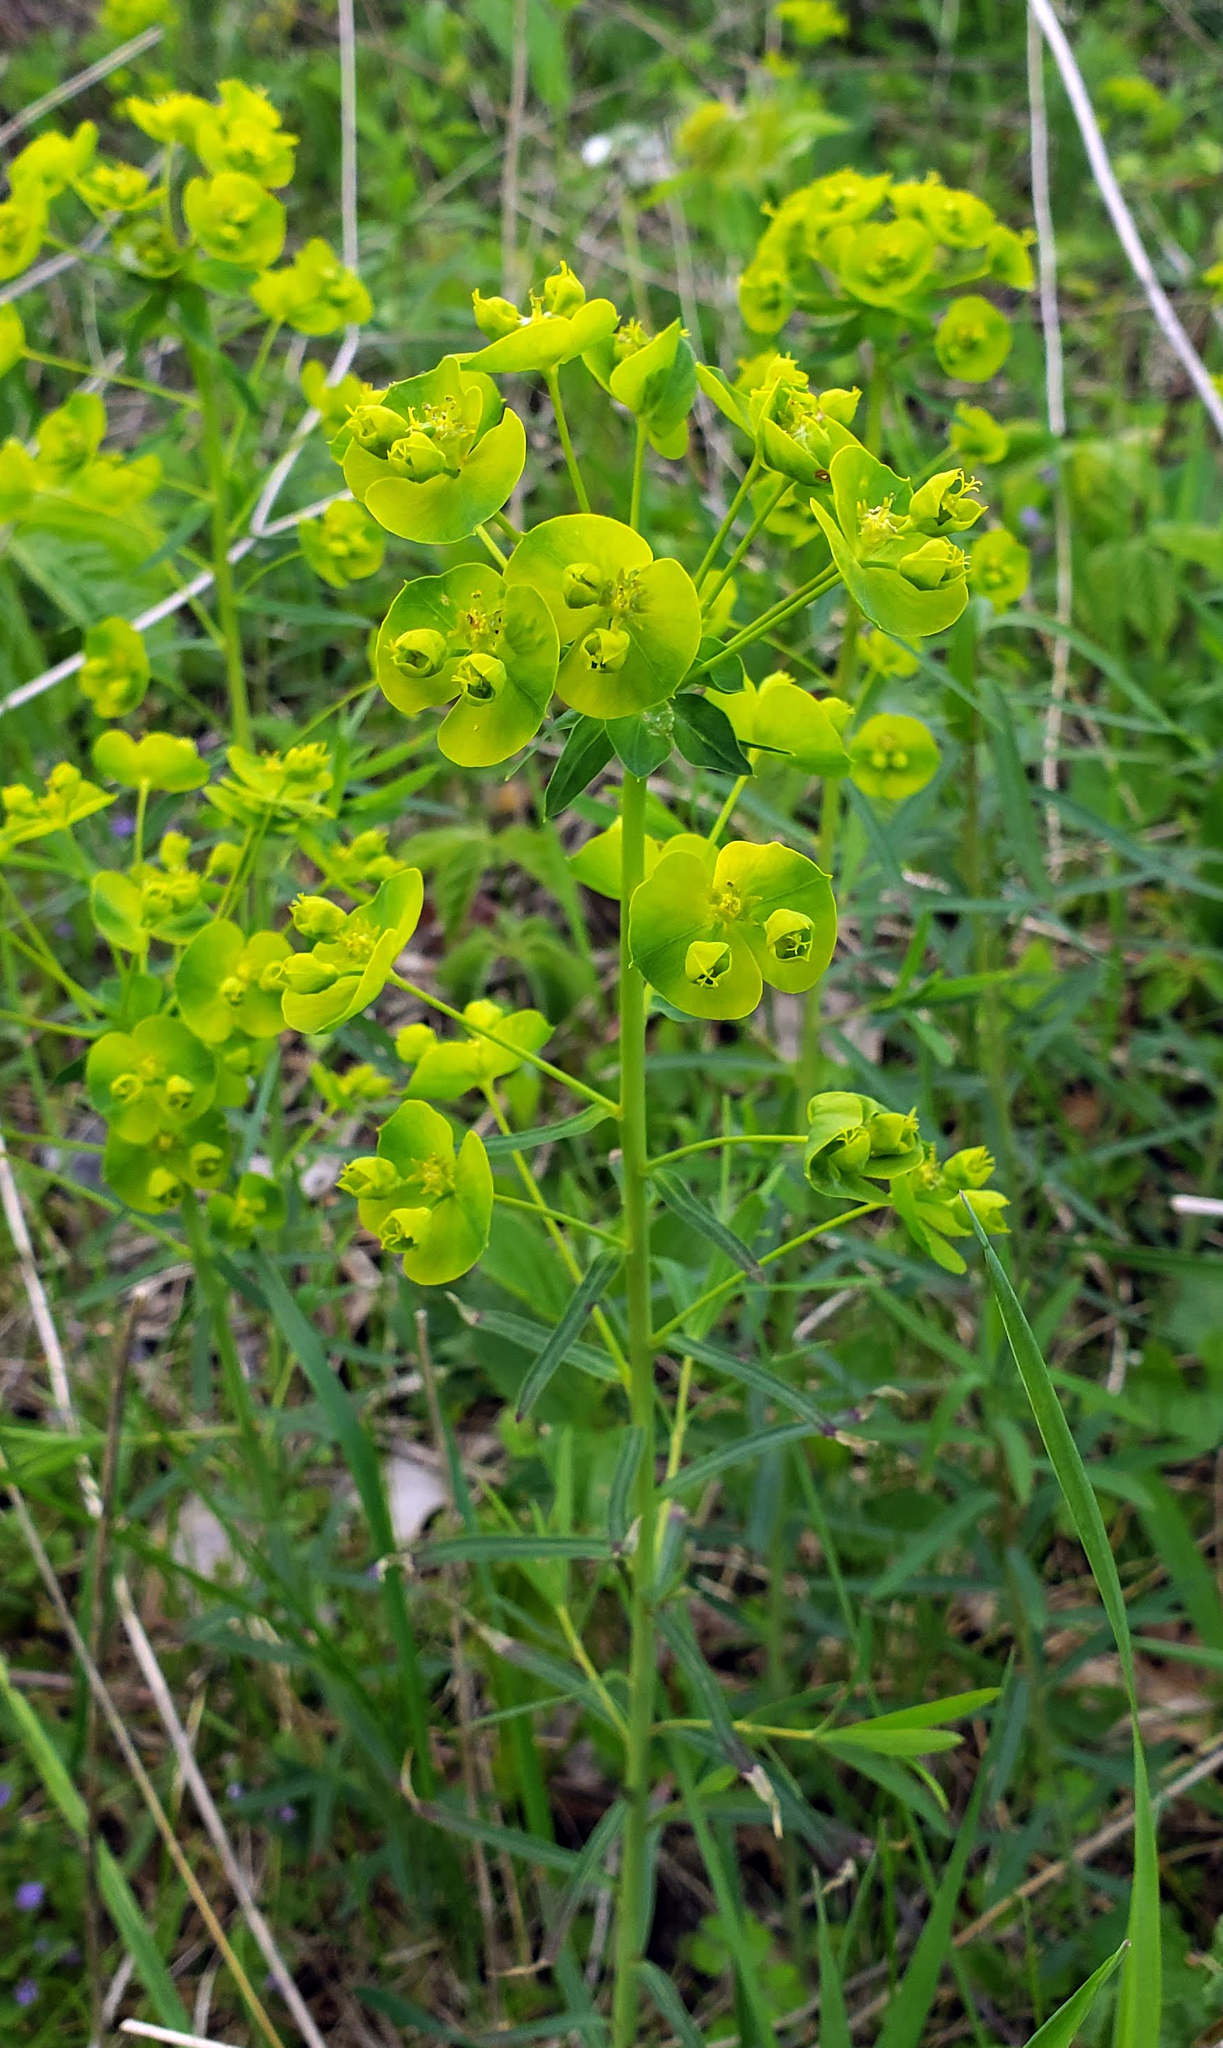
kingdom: Plantae
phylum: Tracheophyta
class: Magnoliopsida
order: Malpighiales
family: Euphorbiaceae
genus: Euphorbia
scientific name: Euphorbia virgata
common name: Leafy spurge
